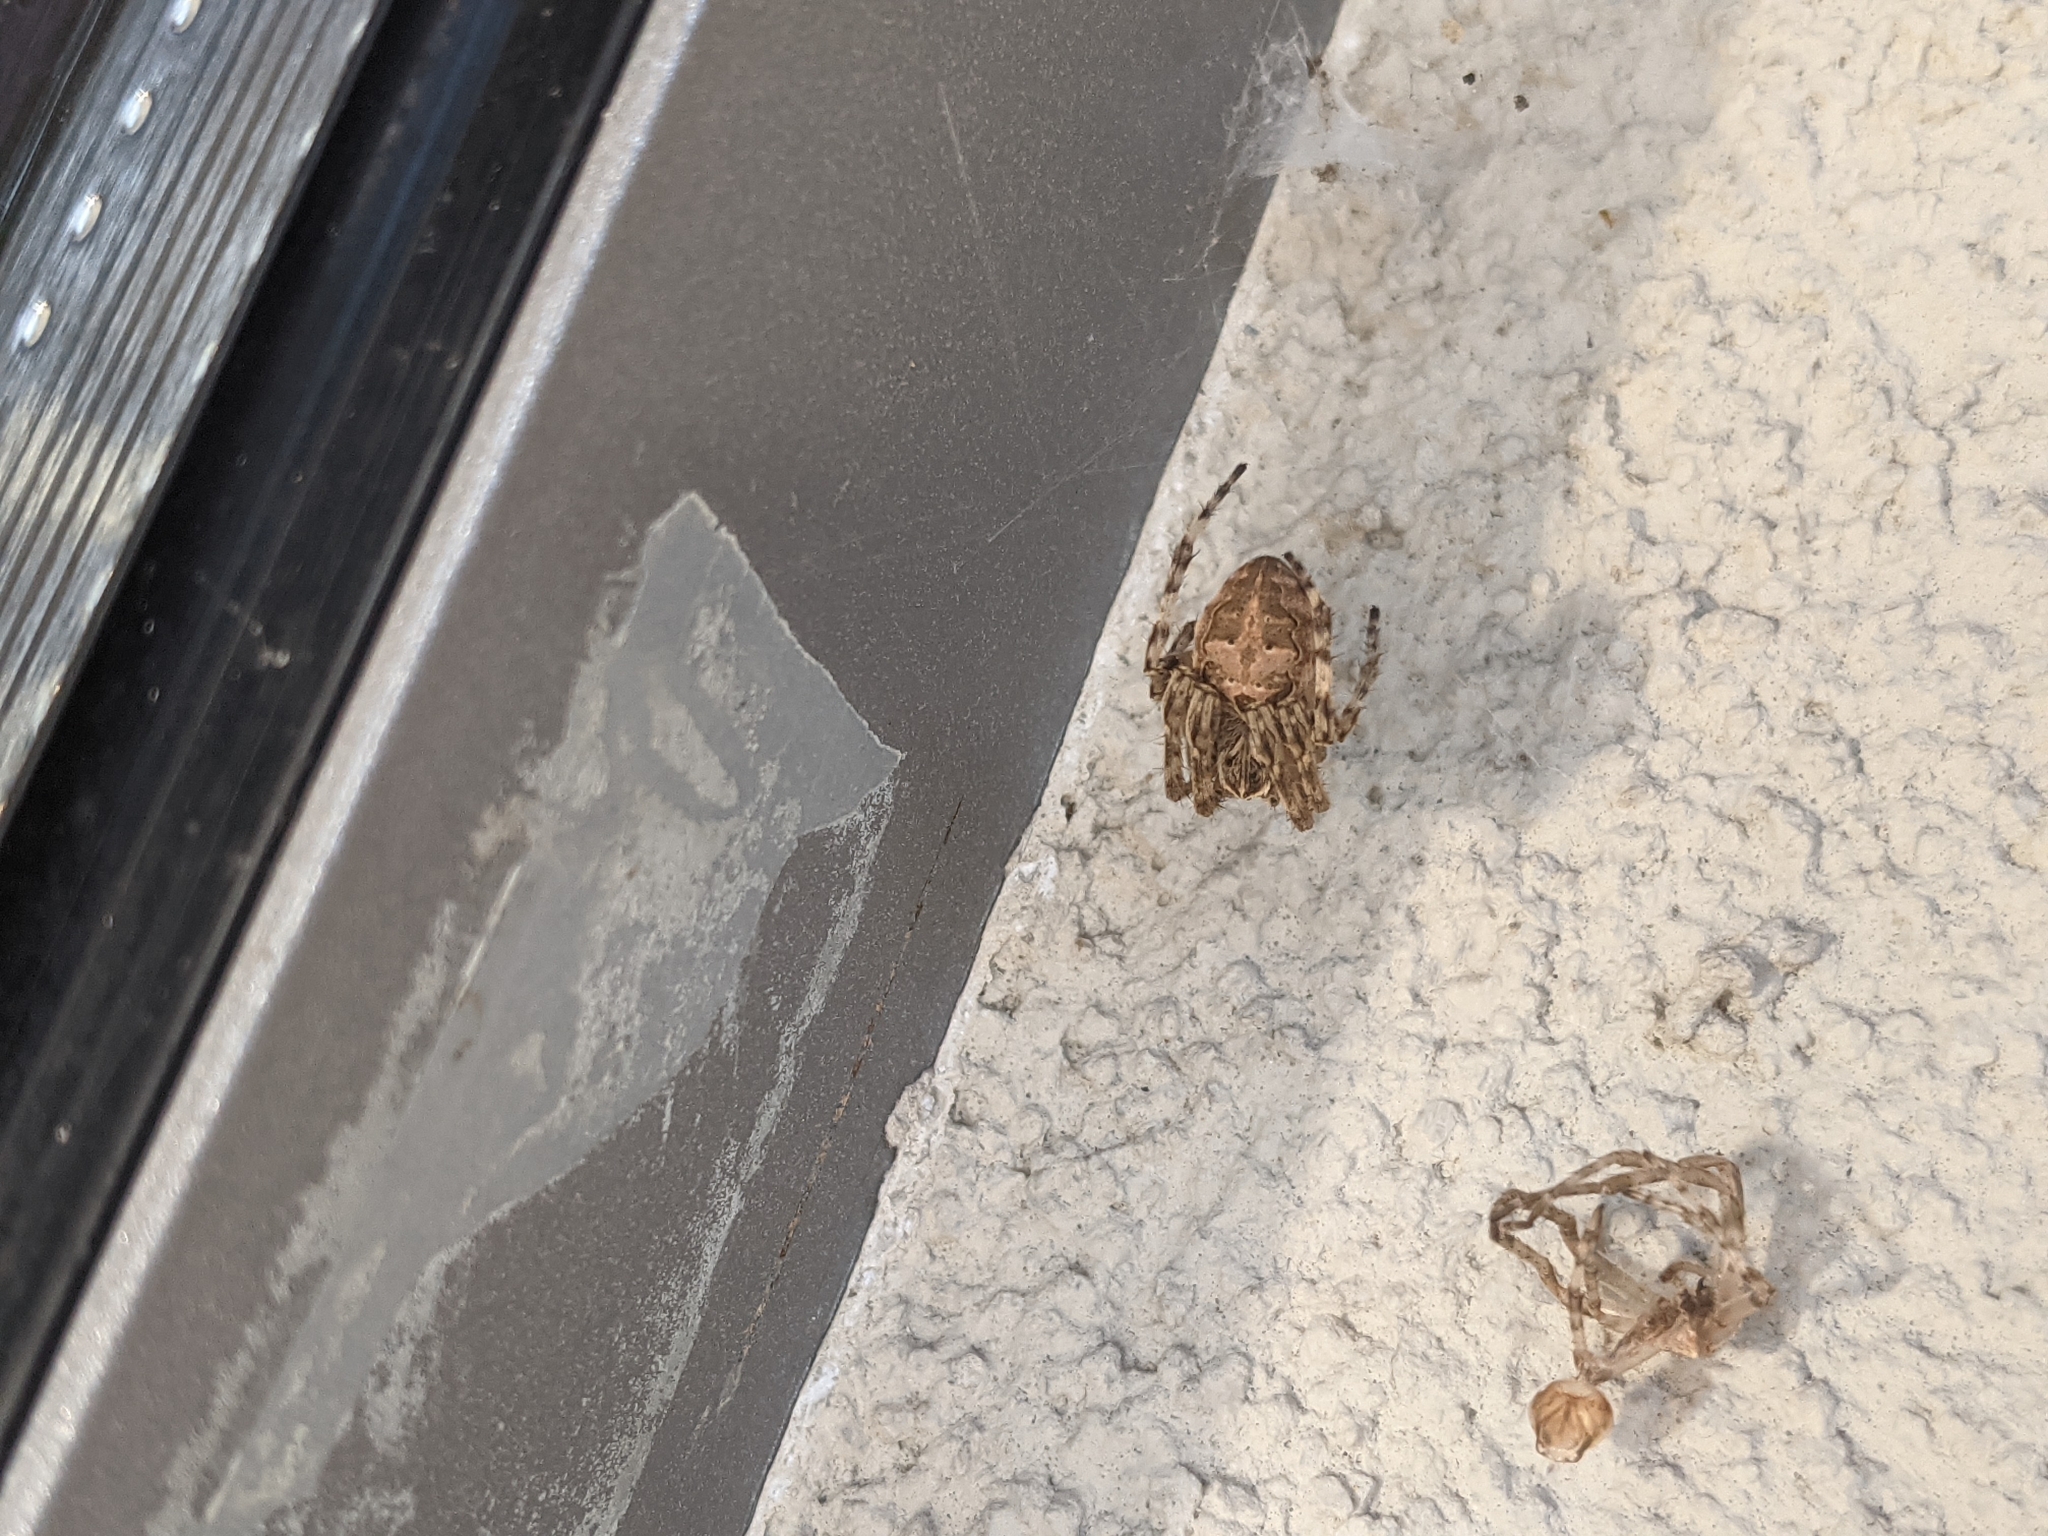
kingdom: Animalia
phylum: Arthropoda
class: Arachnida
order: Araneae
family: Araneidae
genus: Larinioides
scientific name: Larinioides sclopetarius
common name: Bridge orbweaver
